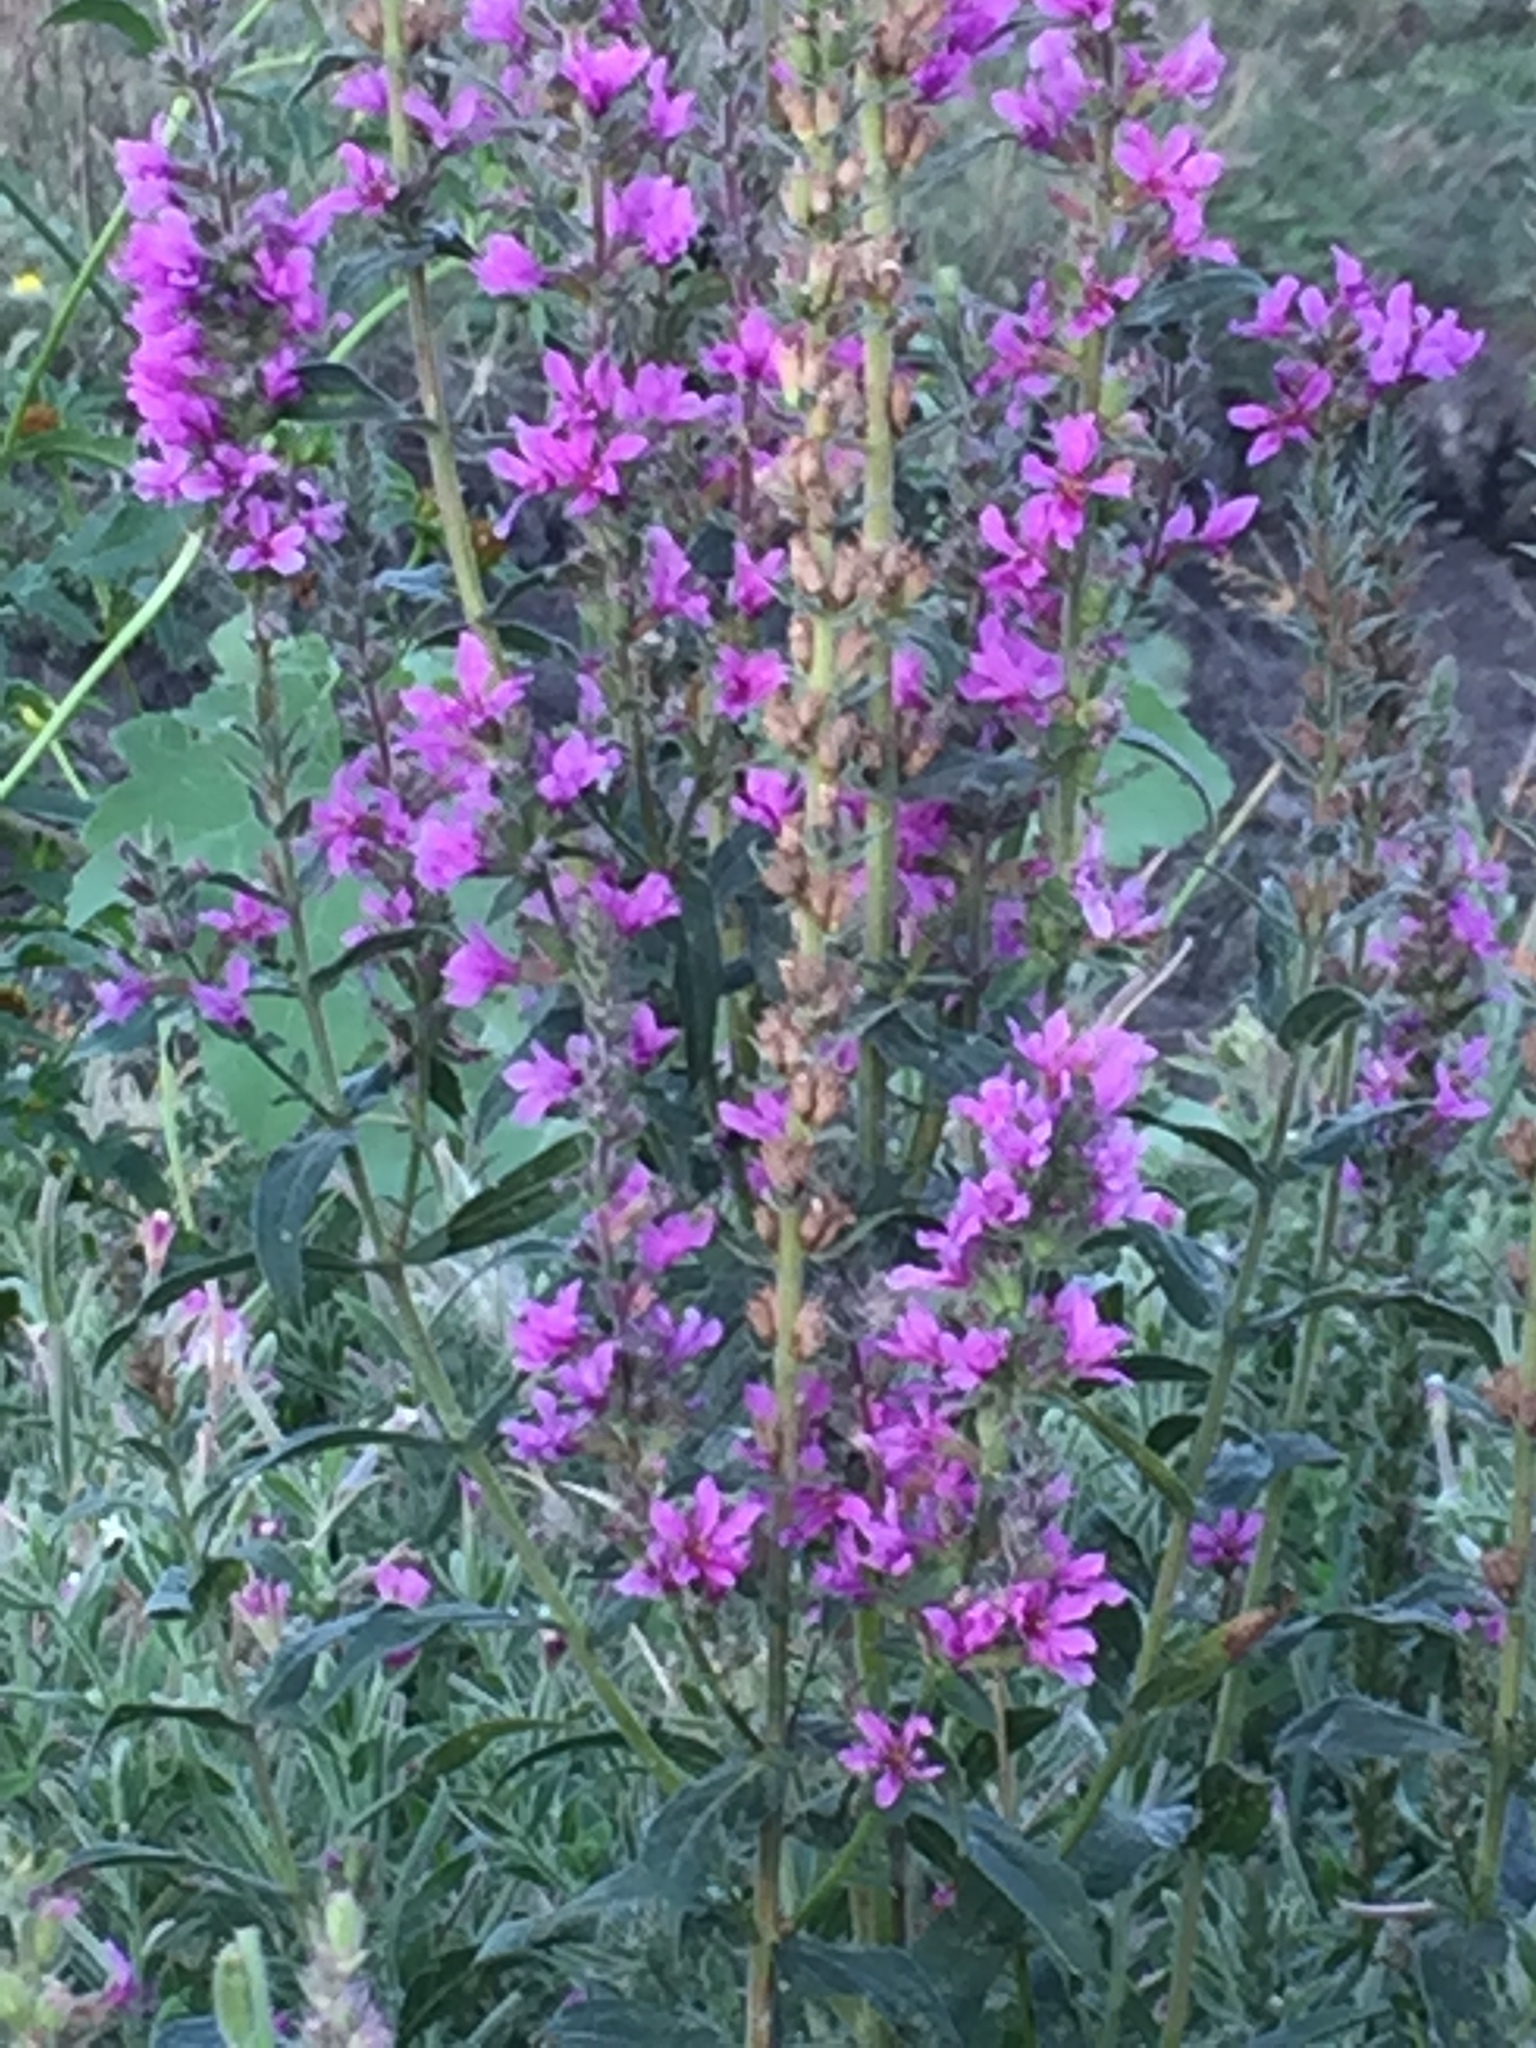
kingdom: Plantae
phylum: Tracheophyta
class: Magnoliopsida
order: Myrtales
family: Lythraceae
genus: Lythrum
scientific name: Lythrum salicaria
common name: Purple loosestrife
